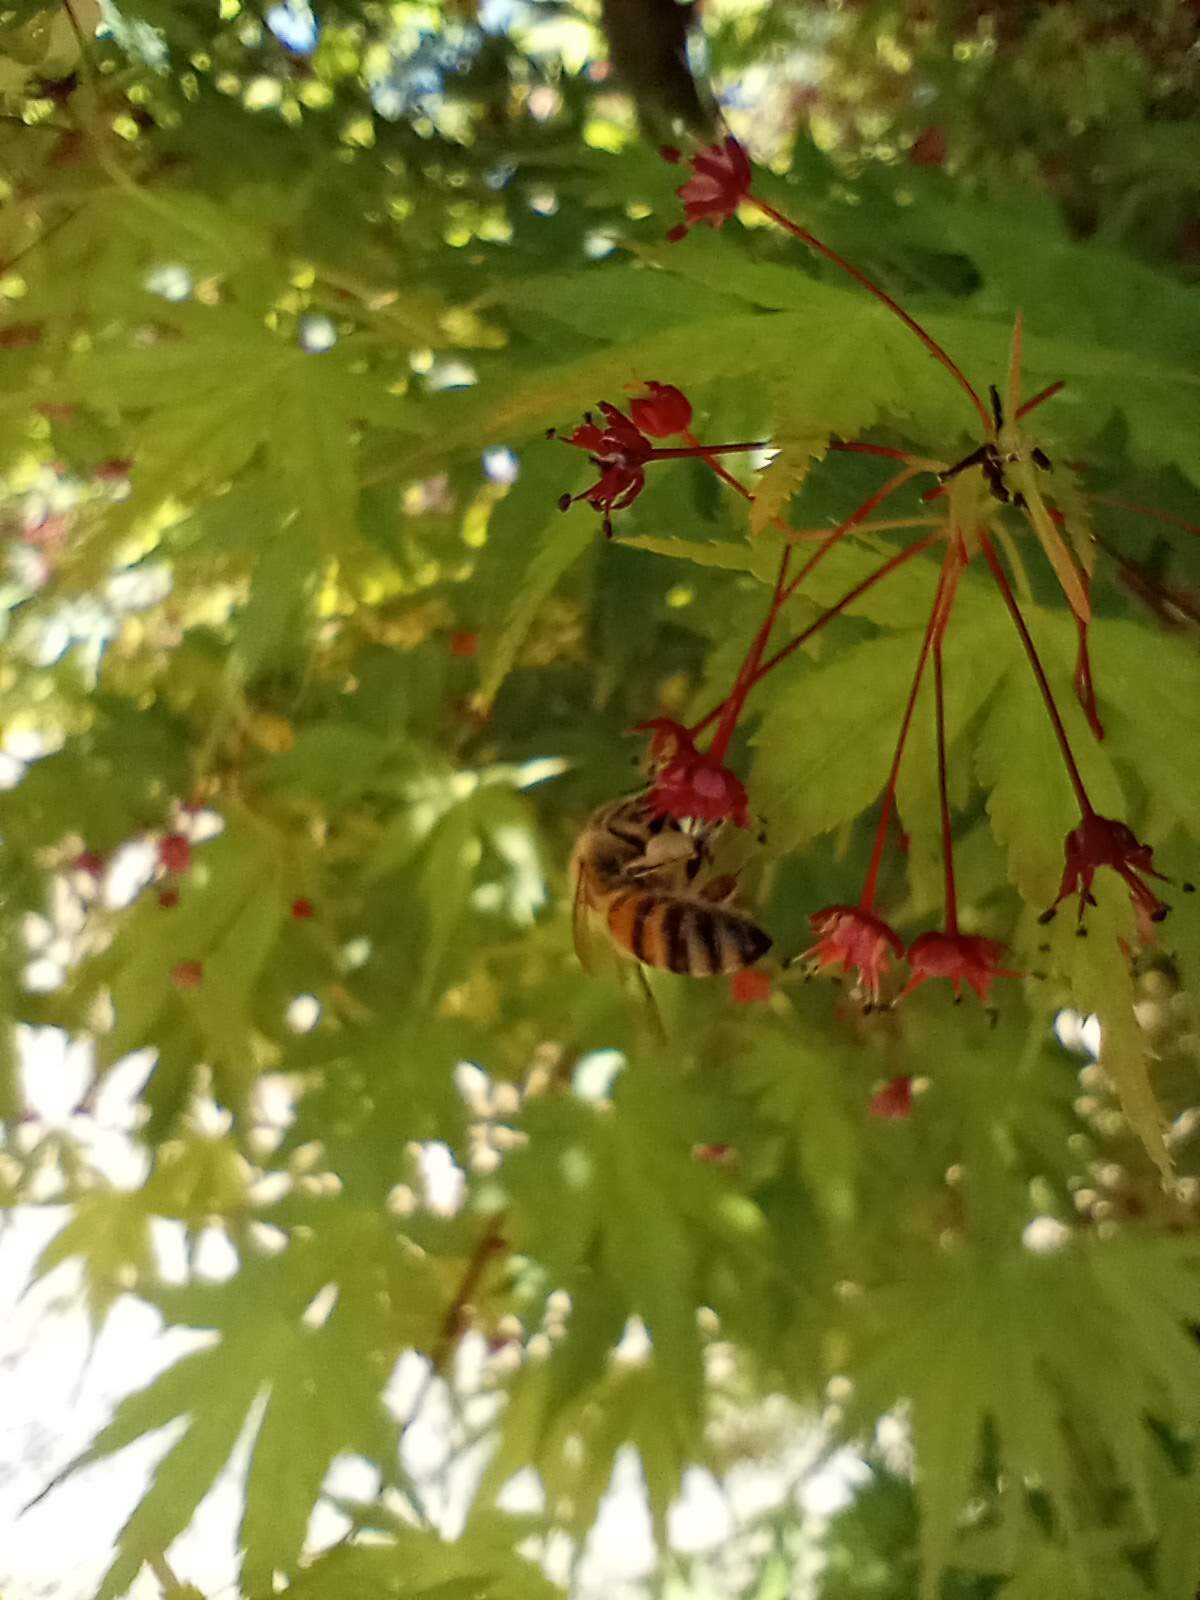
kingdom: Animalia
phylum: Arthropoda
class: Insecta
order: Hymenoptera
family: Apidae
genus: Apis
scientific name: Apis mellifera
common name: Honey bee
